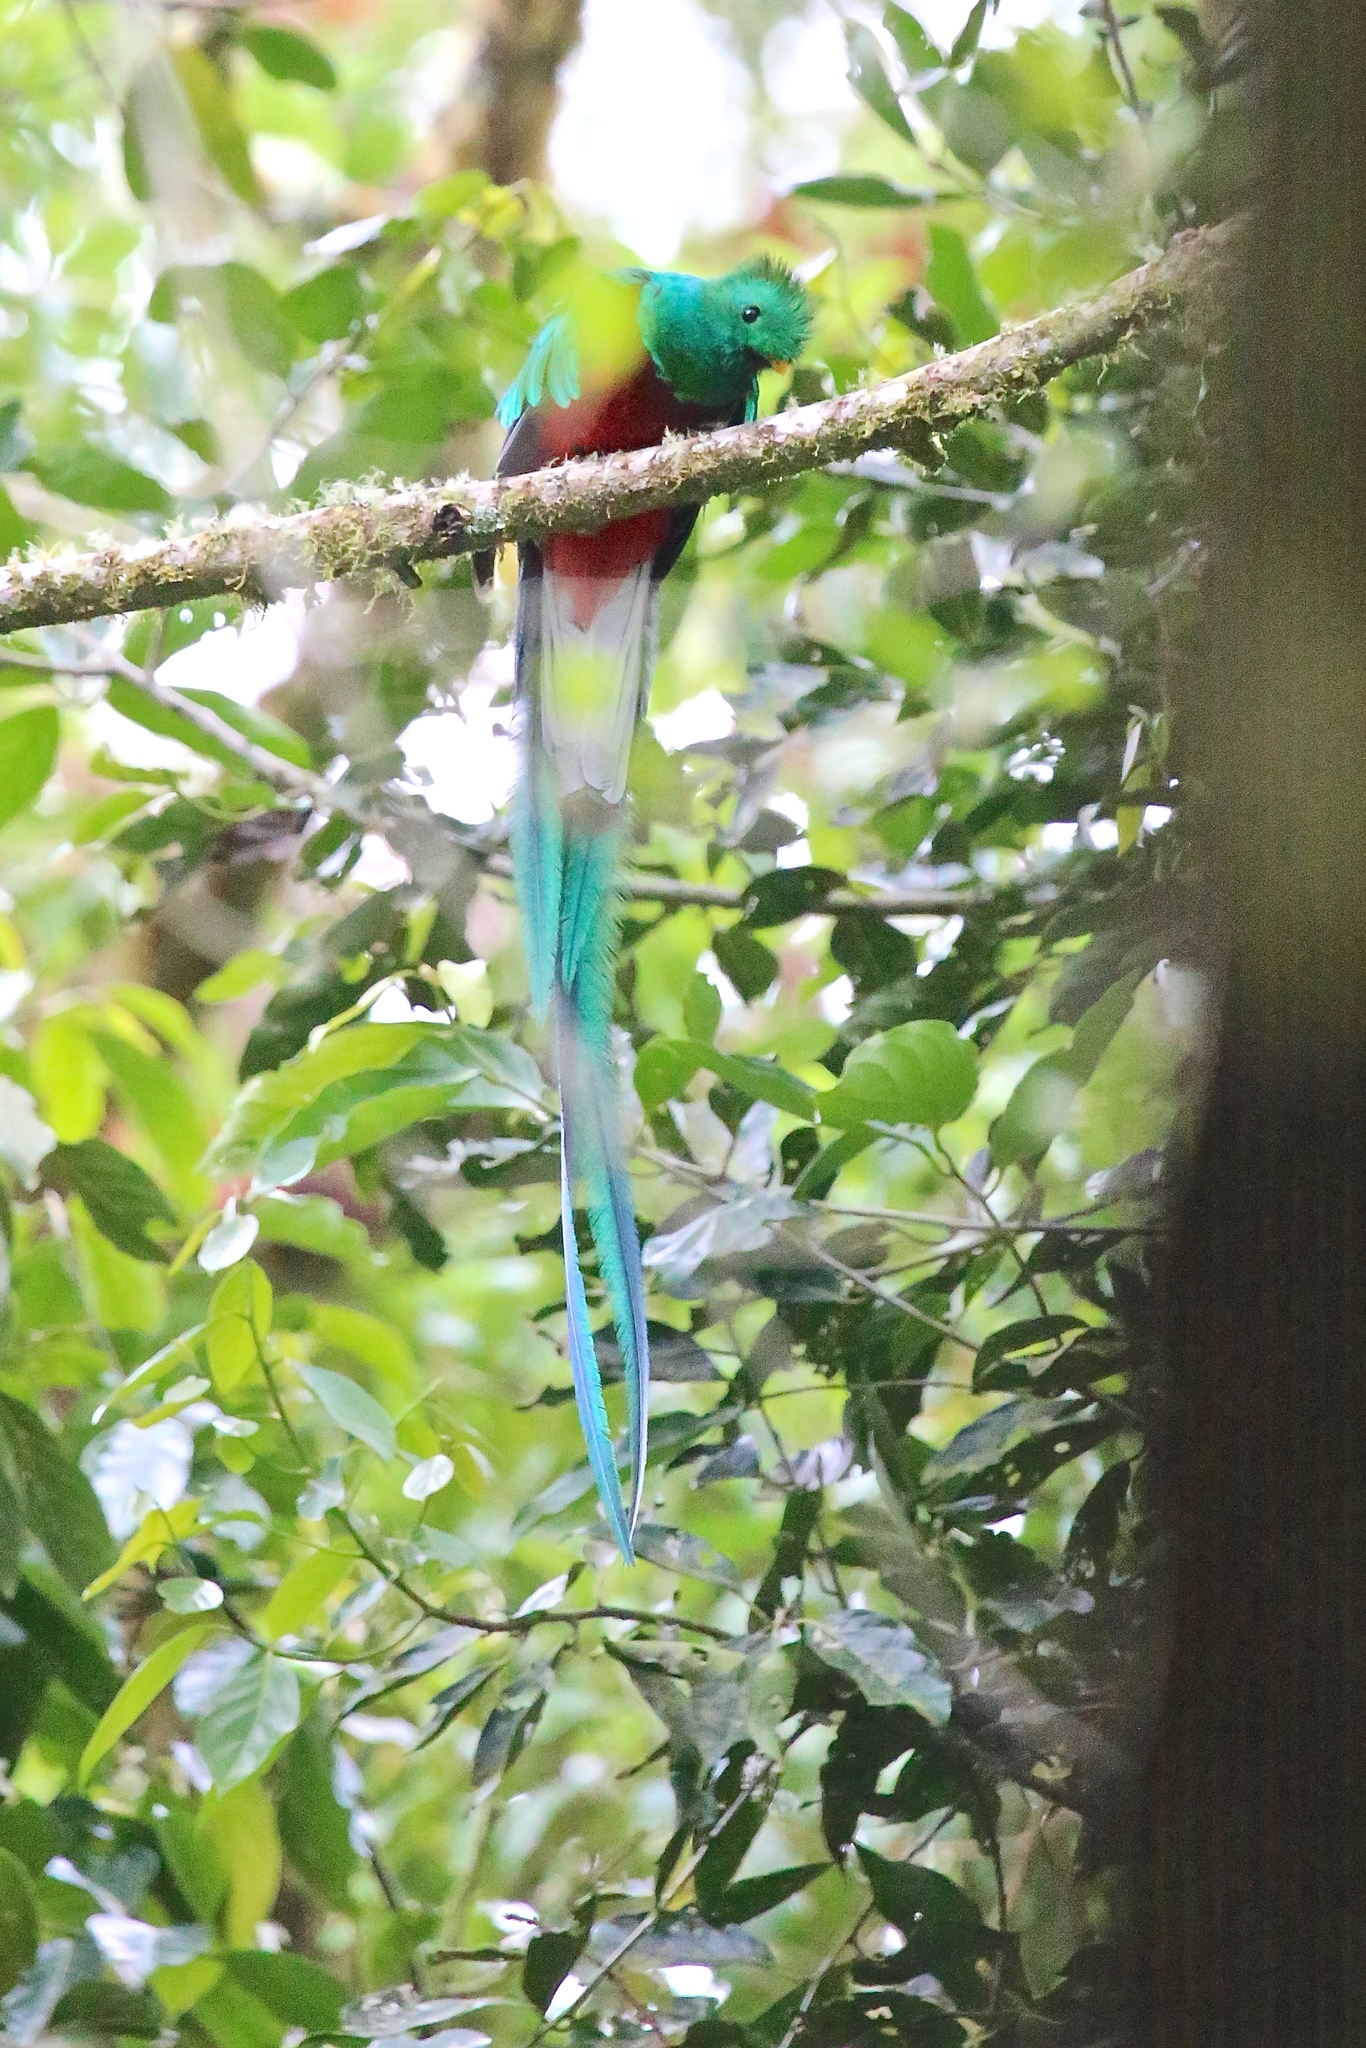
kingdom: Animalia
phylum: Chordata
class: Aves
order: Trogoniformes
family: Trogonidae
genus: Pharomachrus
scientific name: Pharomachrus mocinno
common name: Resplendent quetzal
